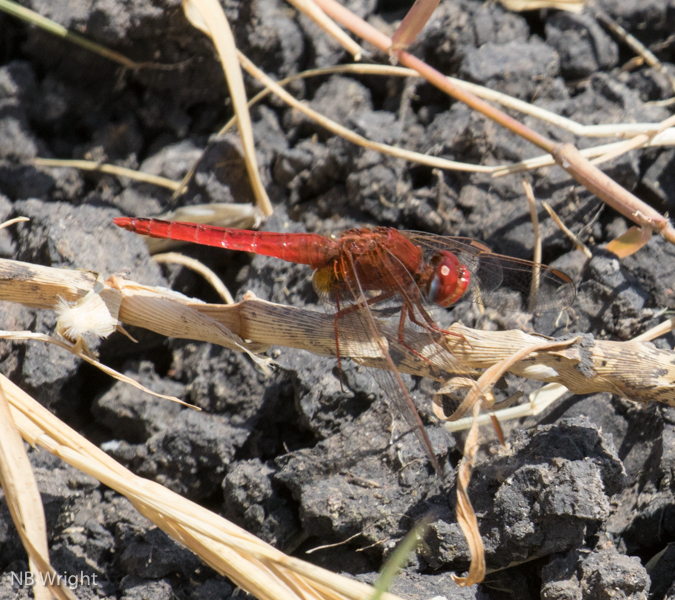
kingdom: Animalia
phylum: Arthropoda
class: Insecta
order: Odonata
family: Libellulidae
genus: Crocothemis
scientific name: Crocothemis erythraea
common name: Scarlet dragonfly
